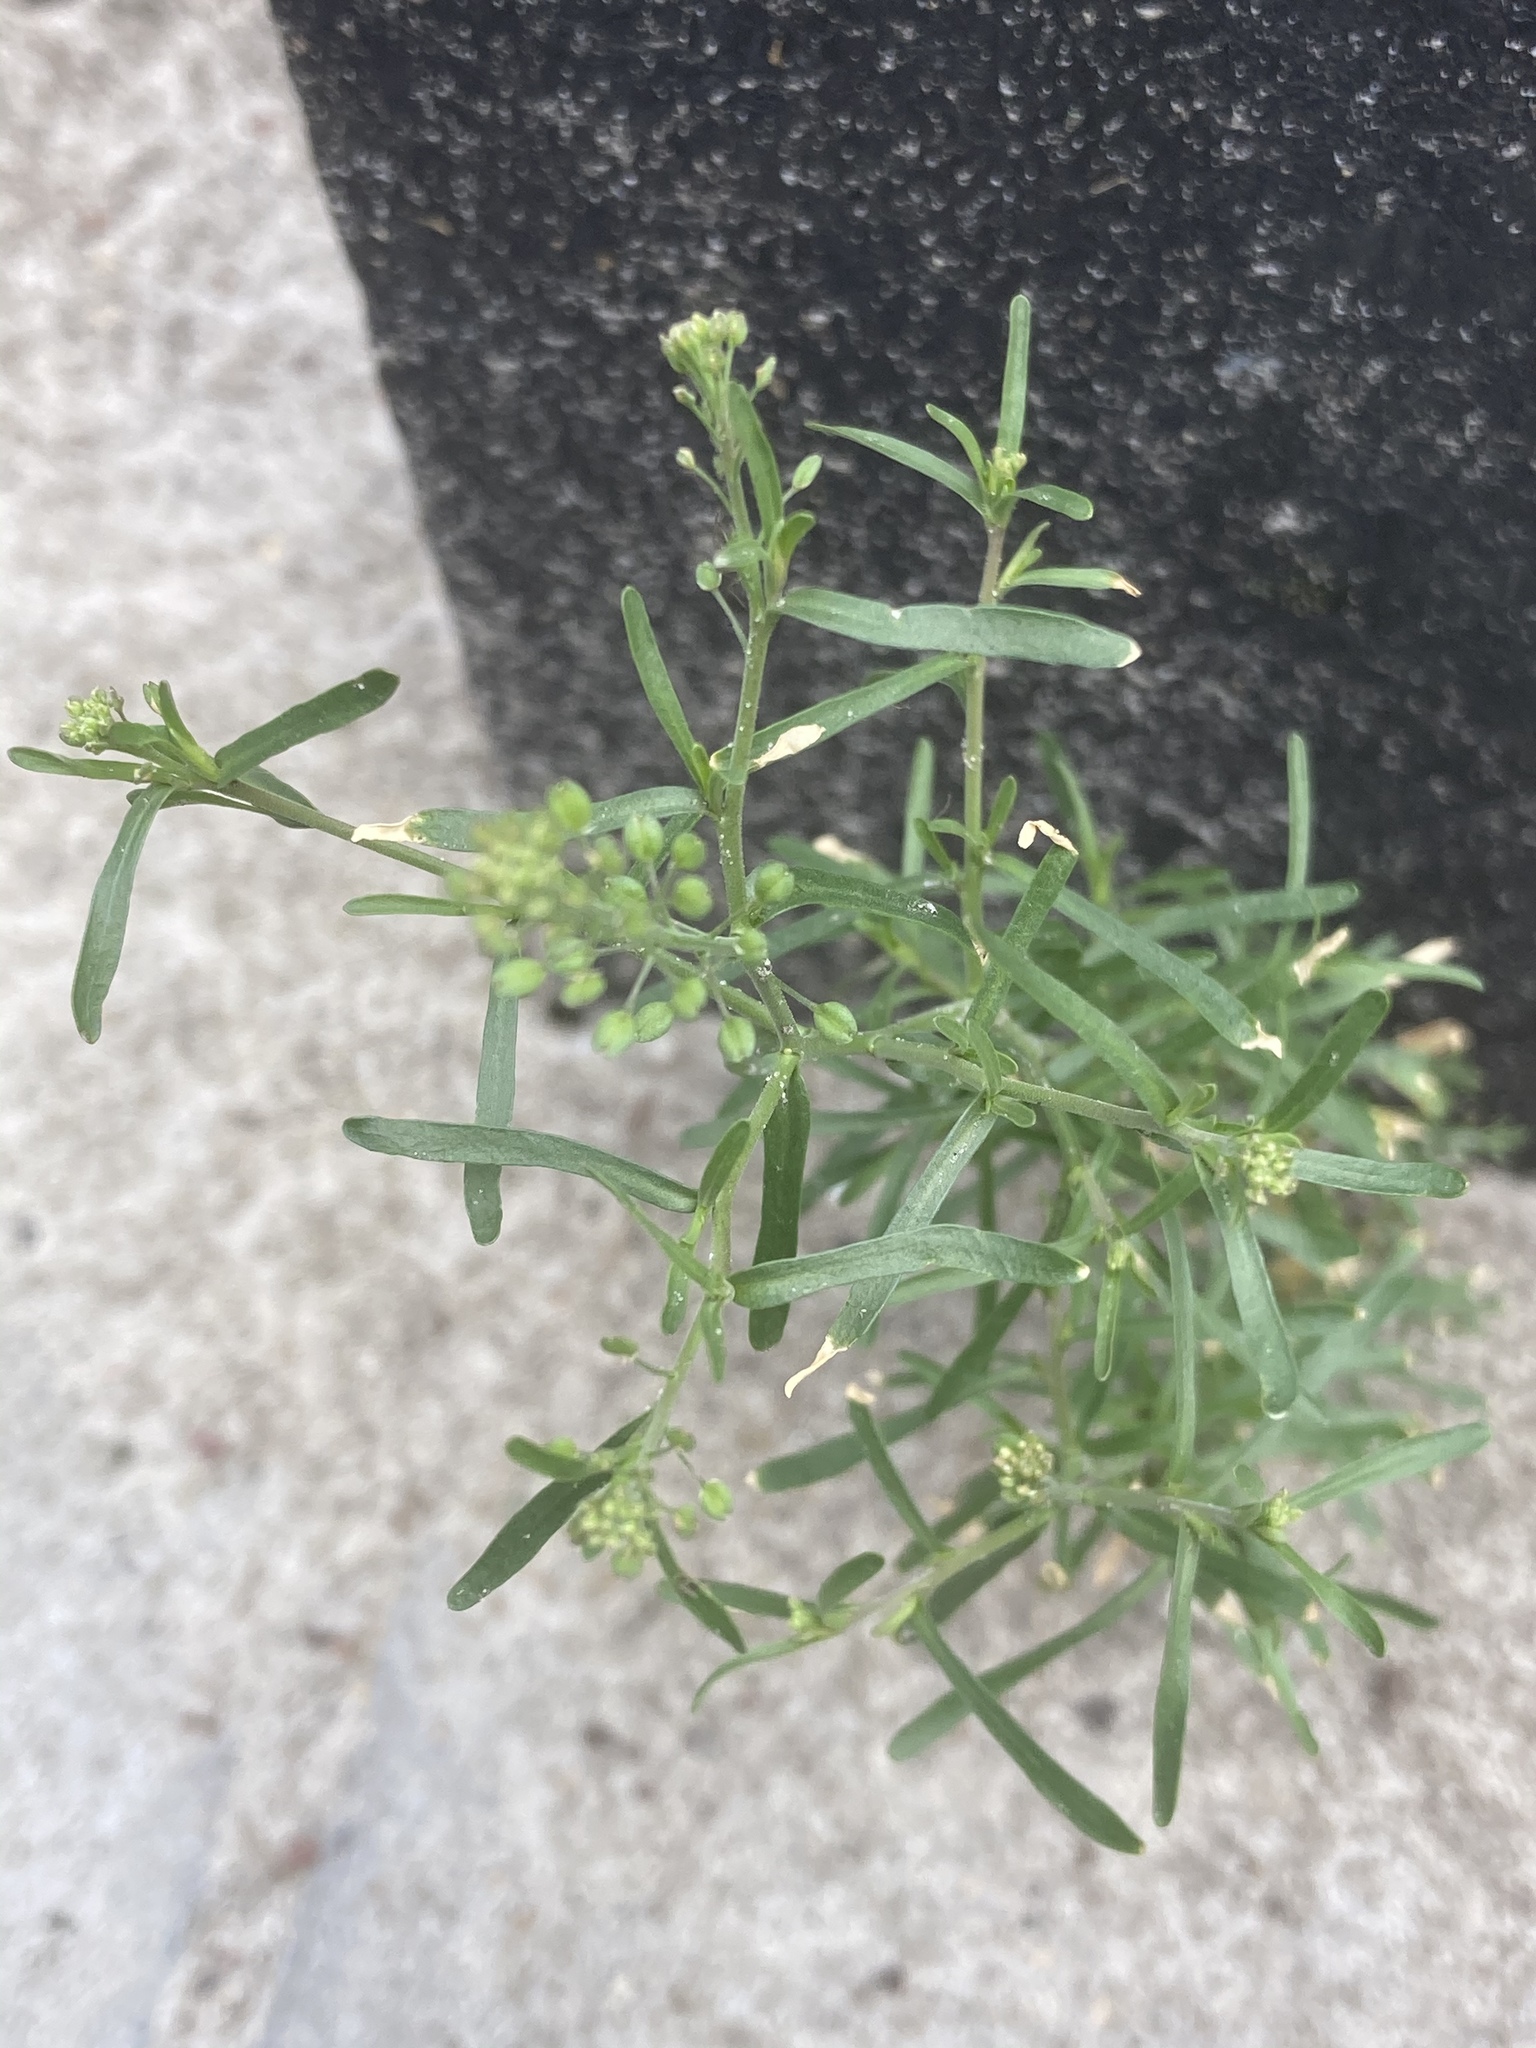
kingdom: Plantae
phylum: Tracheophyta
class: Magnoliopsida
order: Brassicales
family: Brassicaceae
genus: Lepidium
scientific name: Lepidium ruderale
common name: Narrow-leaved pepperwort
